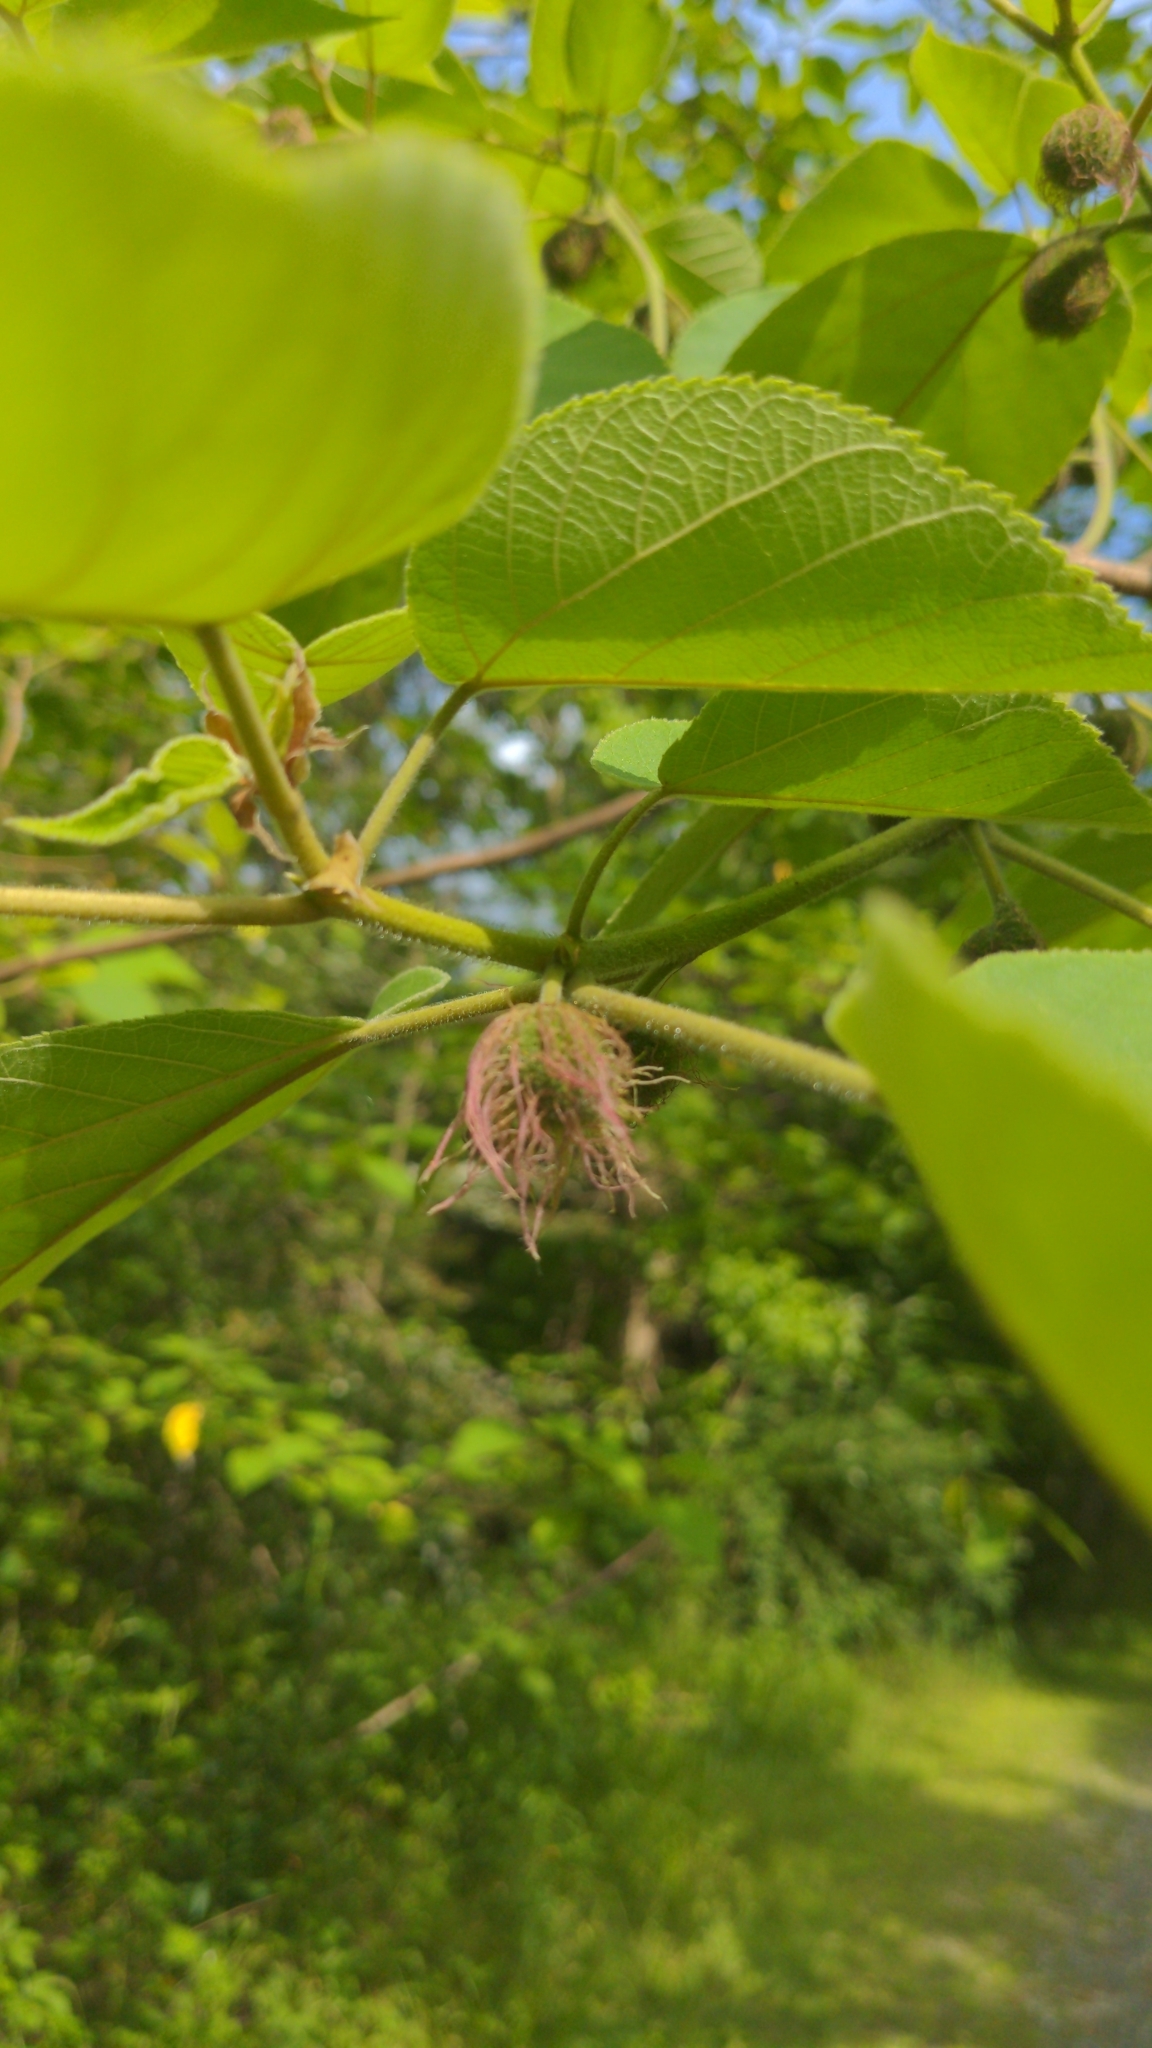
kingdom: Plantae
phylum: Tracheophyta
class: Magnoliopsida
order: Rosales
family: Moraceae
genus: Broussonetia
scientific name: Broussonetia papyrifera
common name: Paper mulberry
